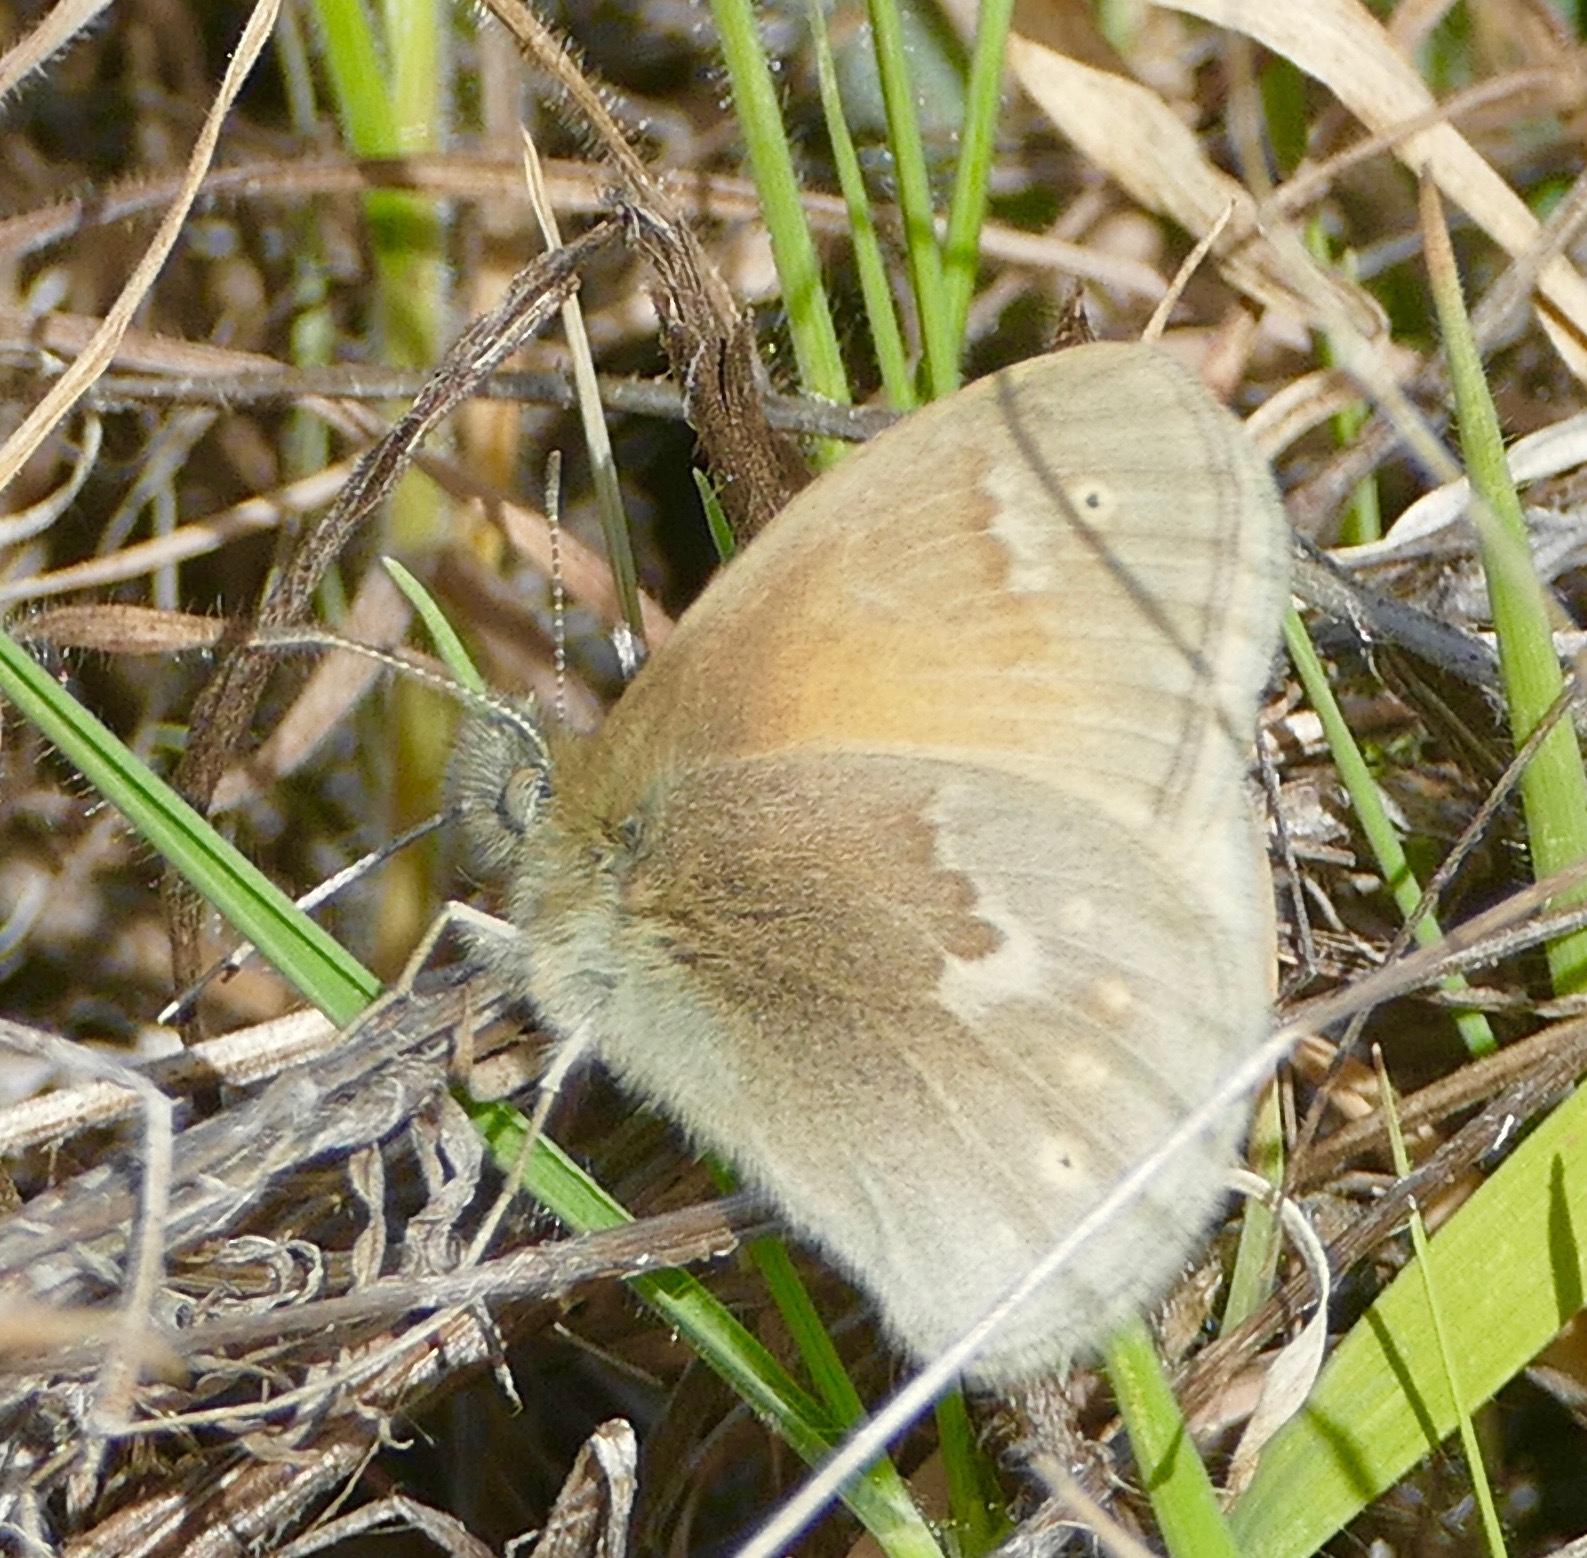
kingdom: Animalia
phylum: Arthropoda
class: Insecta
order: Lepidoptera
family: Nymphalidae
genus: Coenonympha
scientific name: Coenonympha california
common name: Common ringlet
